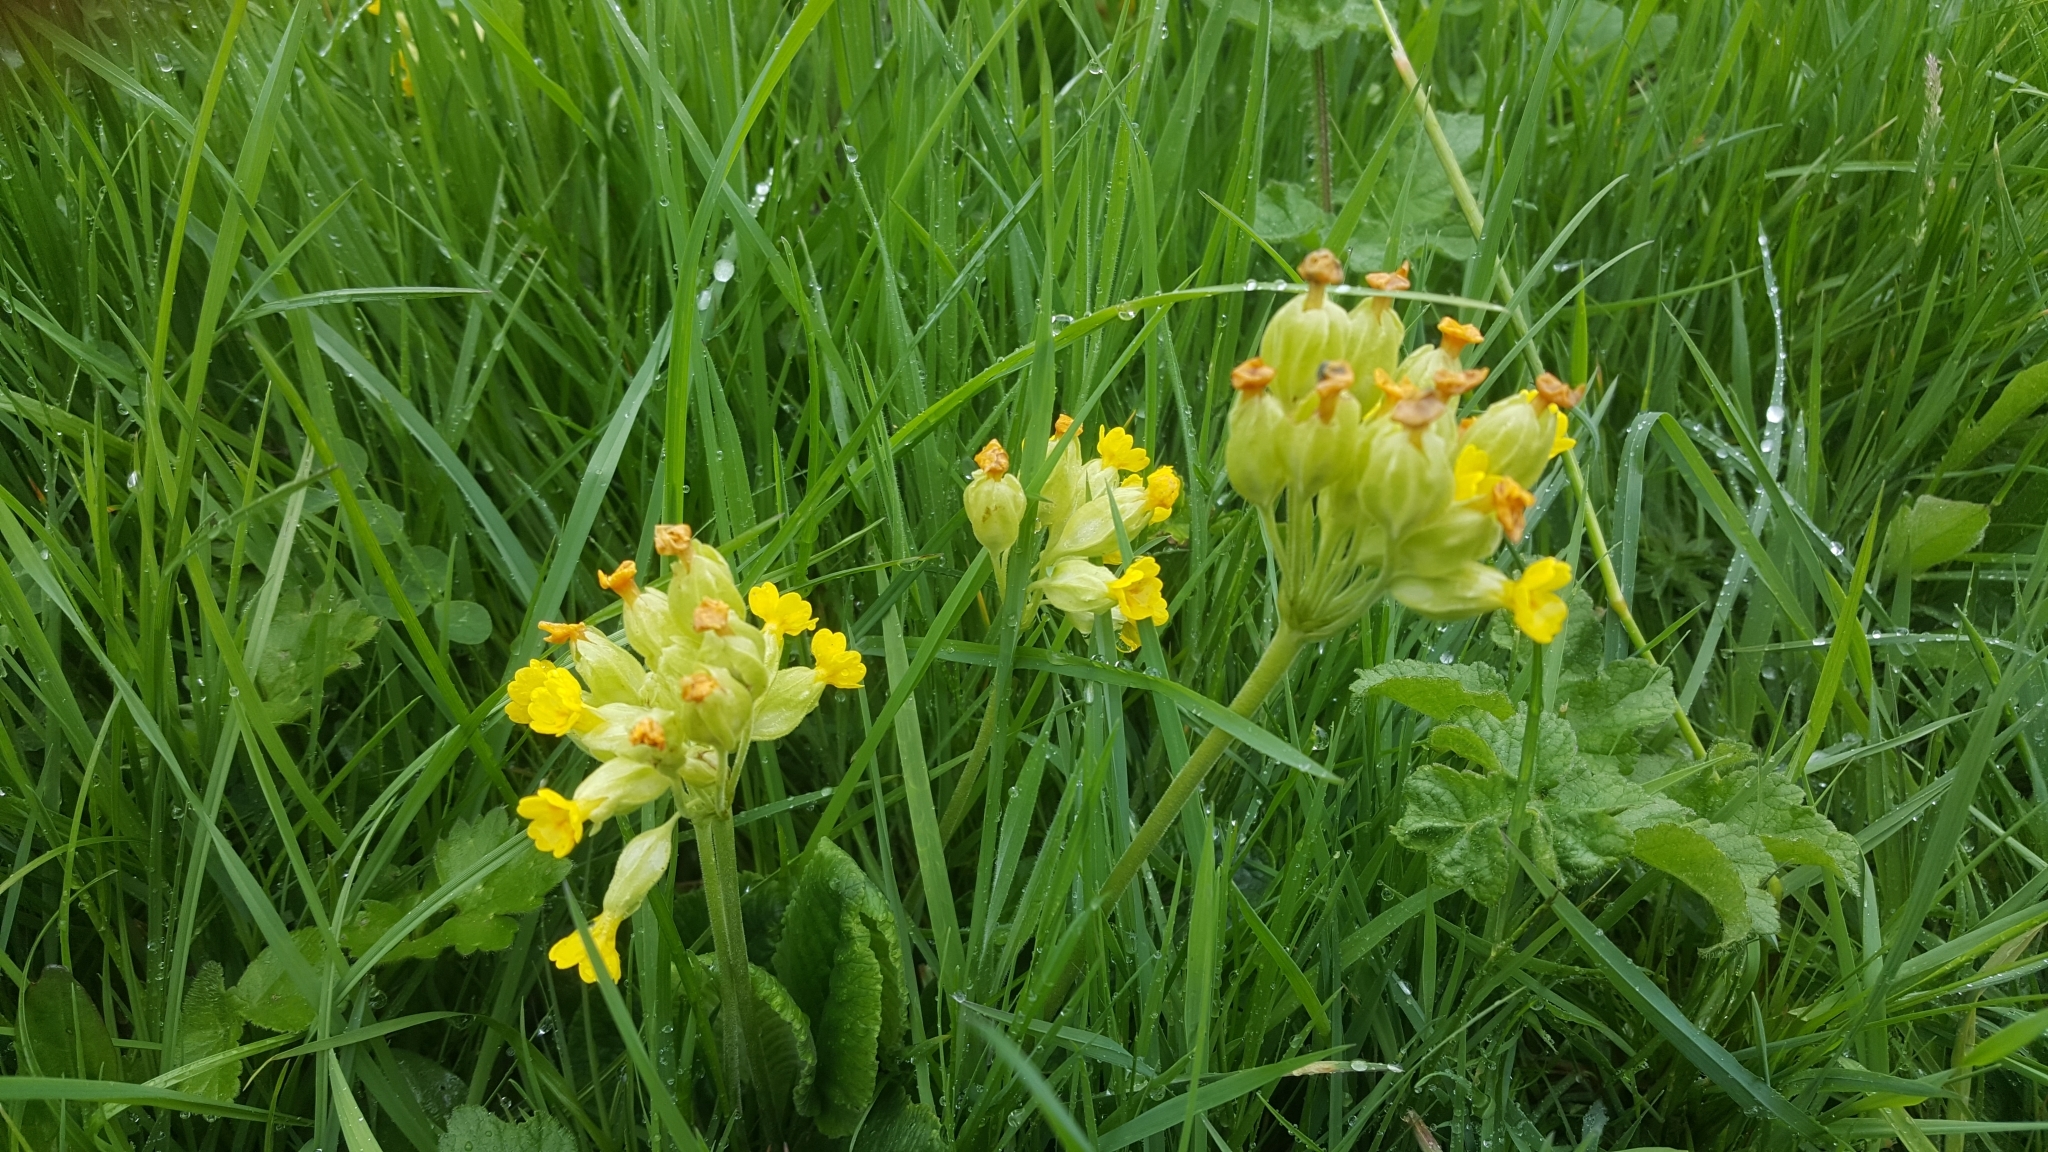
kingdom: Plantae
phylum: Tracheophyta
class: Magnoliopsida
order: Ericales
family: Primulaceae
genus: Primula
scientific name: Primula veris
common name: Cowslip
